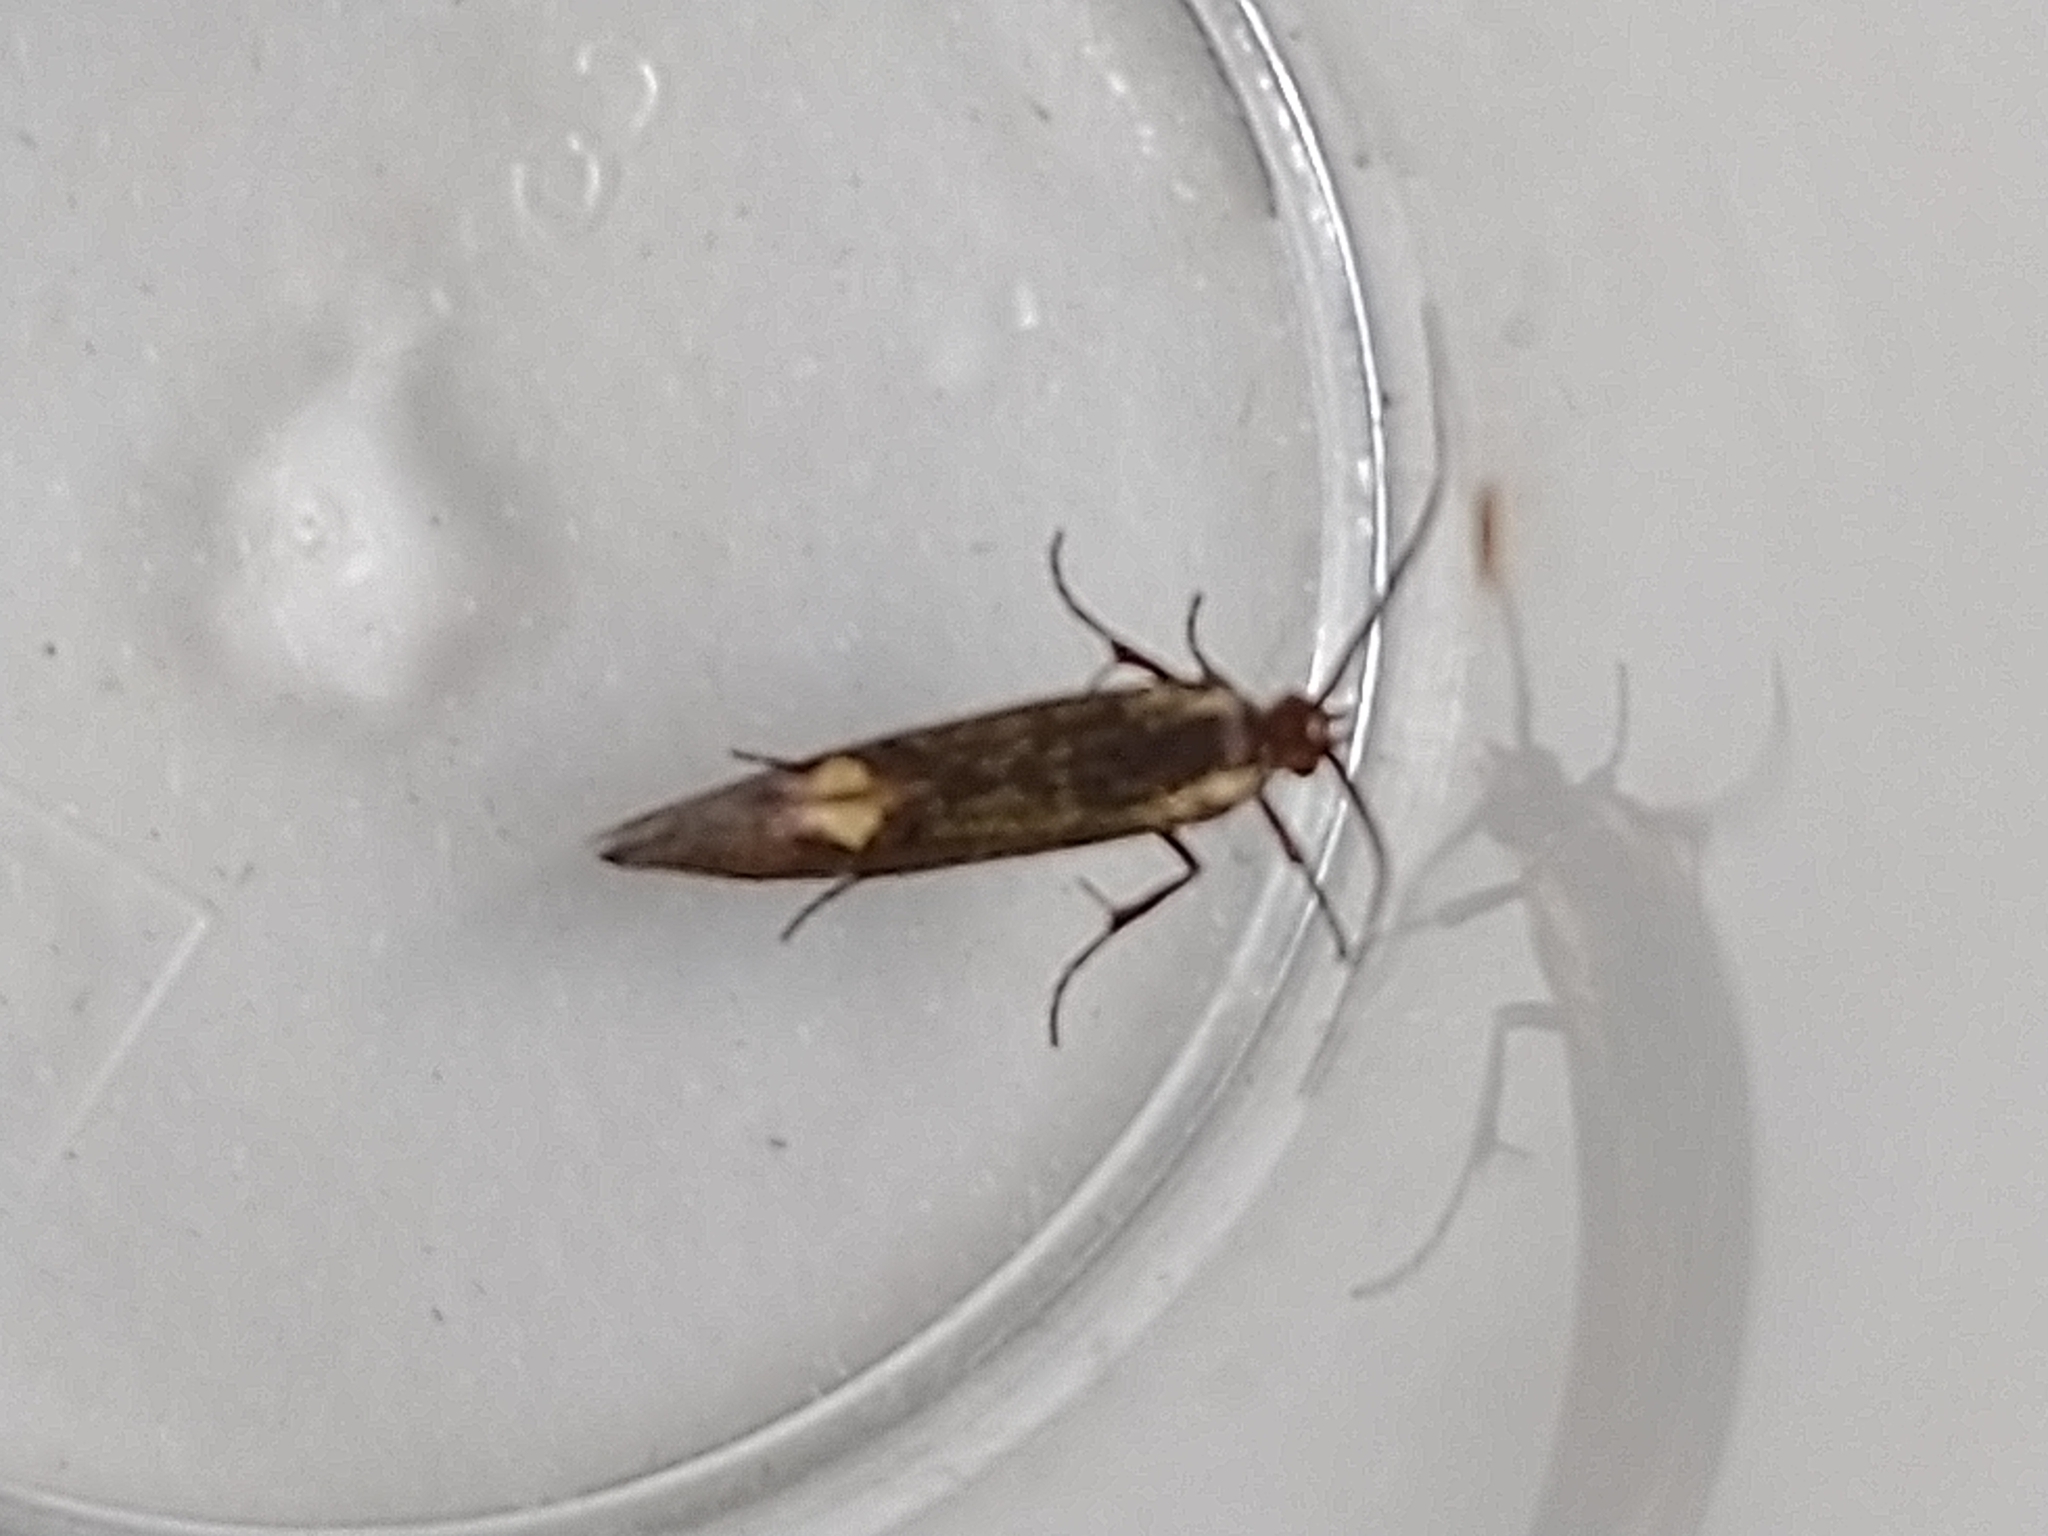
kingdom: Animalia
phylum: Arthropoda
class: Insecta
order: Lepidoptera
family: Oecophoridae
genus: Dafa
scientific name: Dafa Esperia sulphurella
